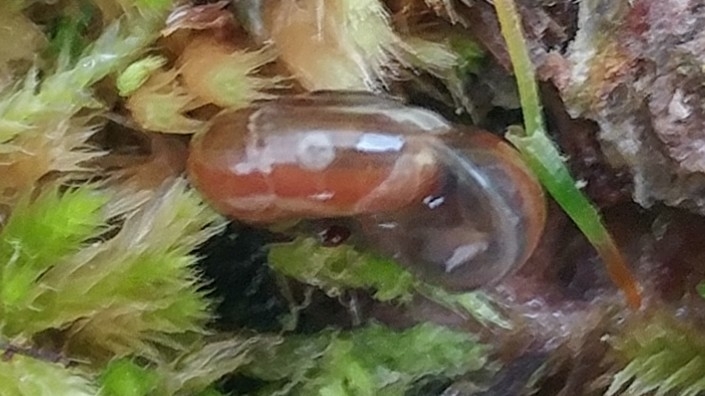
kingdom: Animalia
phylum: Mollusca
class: Gastropoda
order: Stylommatophora
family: Oxychilidae
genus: Oxychilus
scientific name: Oxychilus alliarius
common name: Garlic glass-snail
